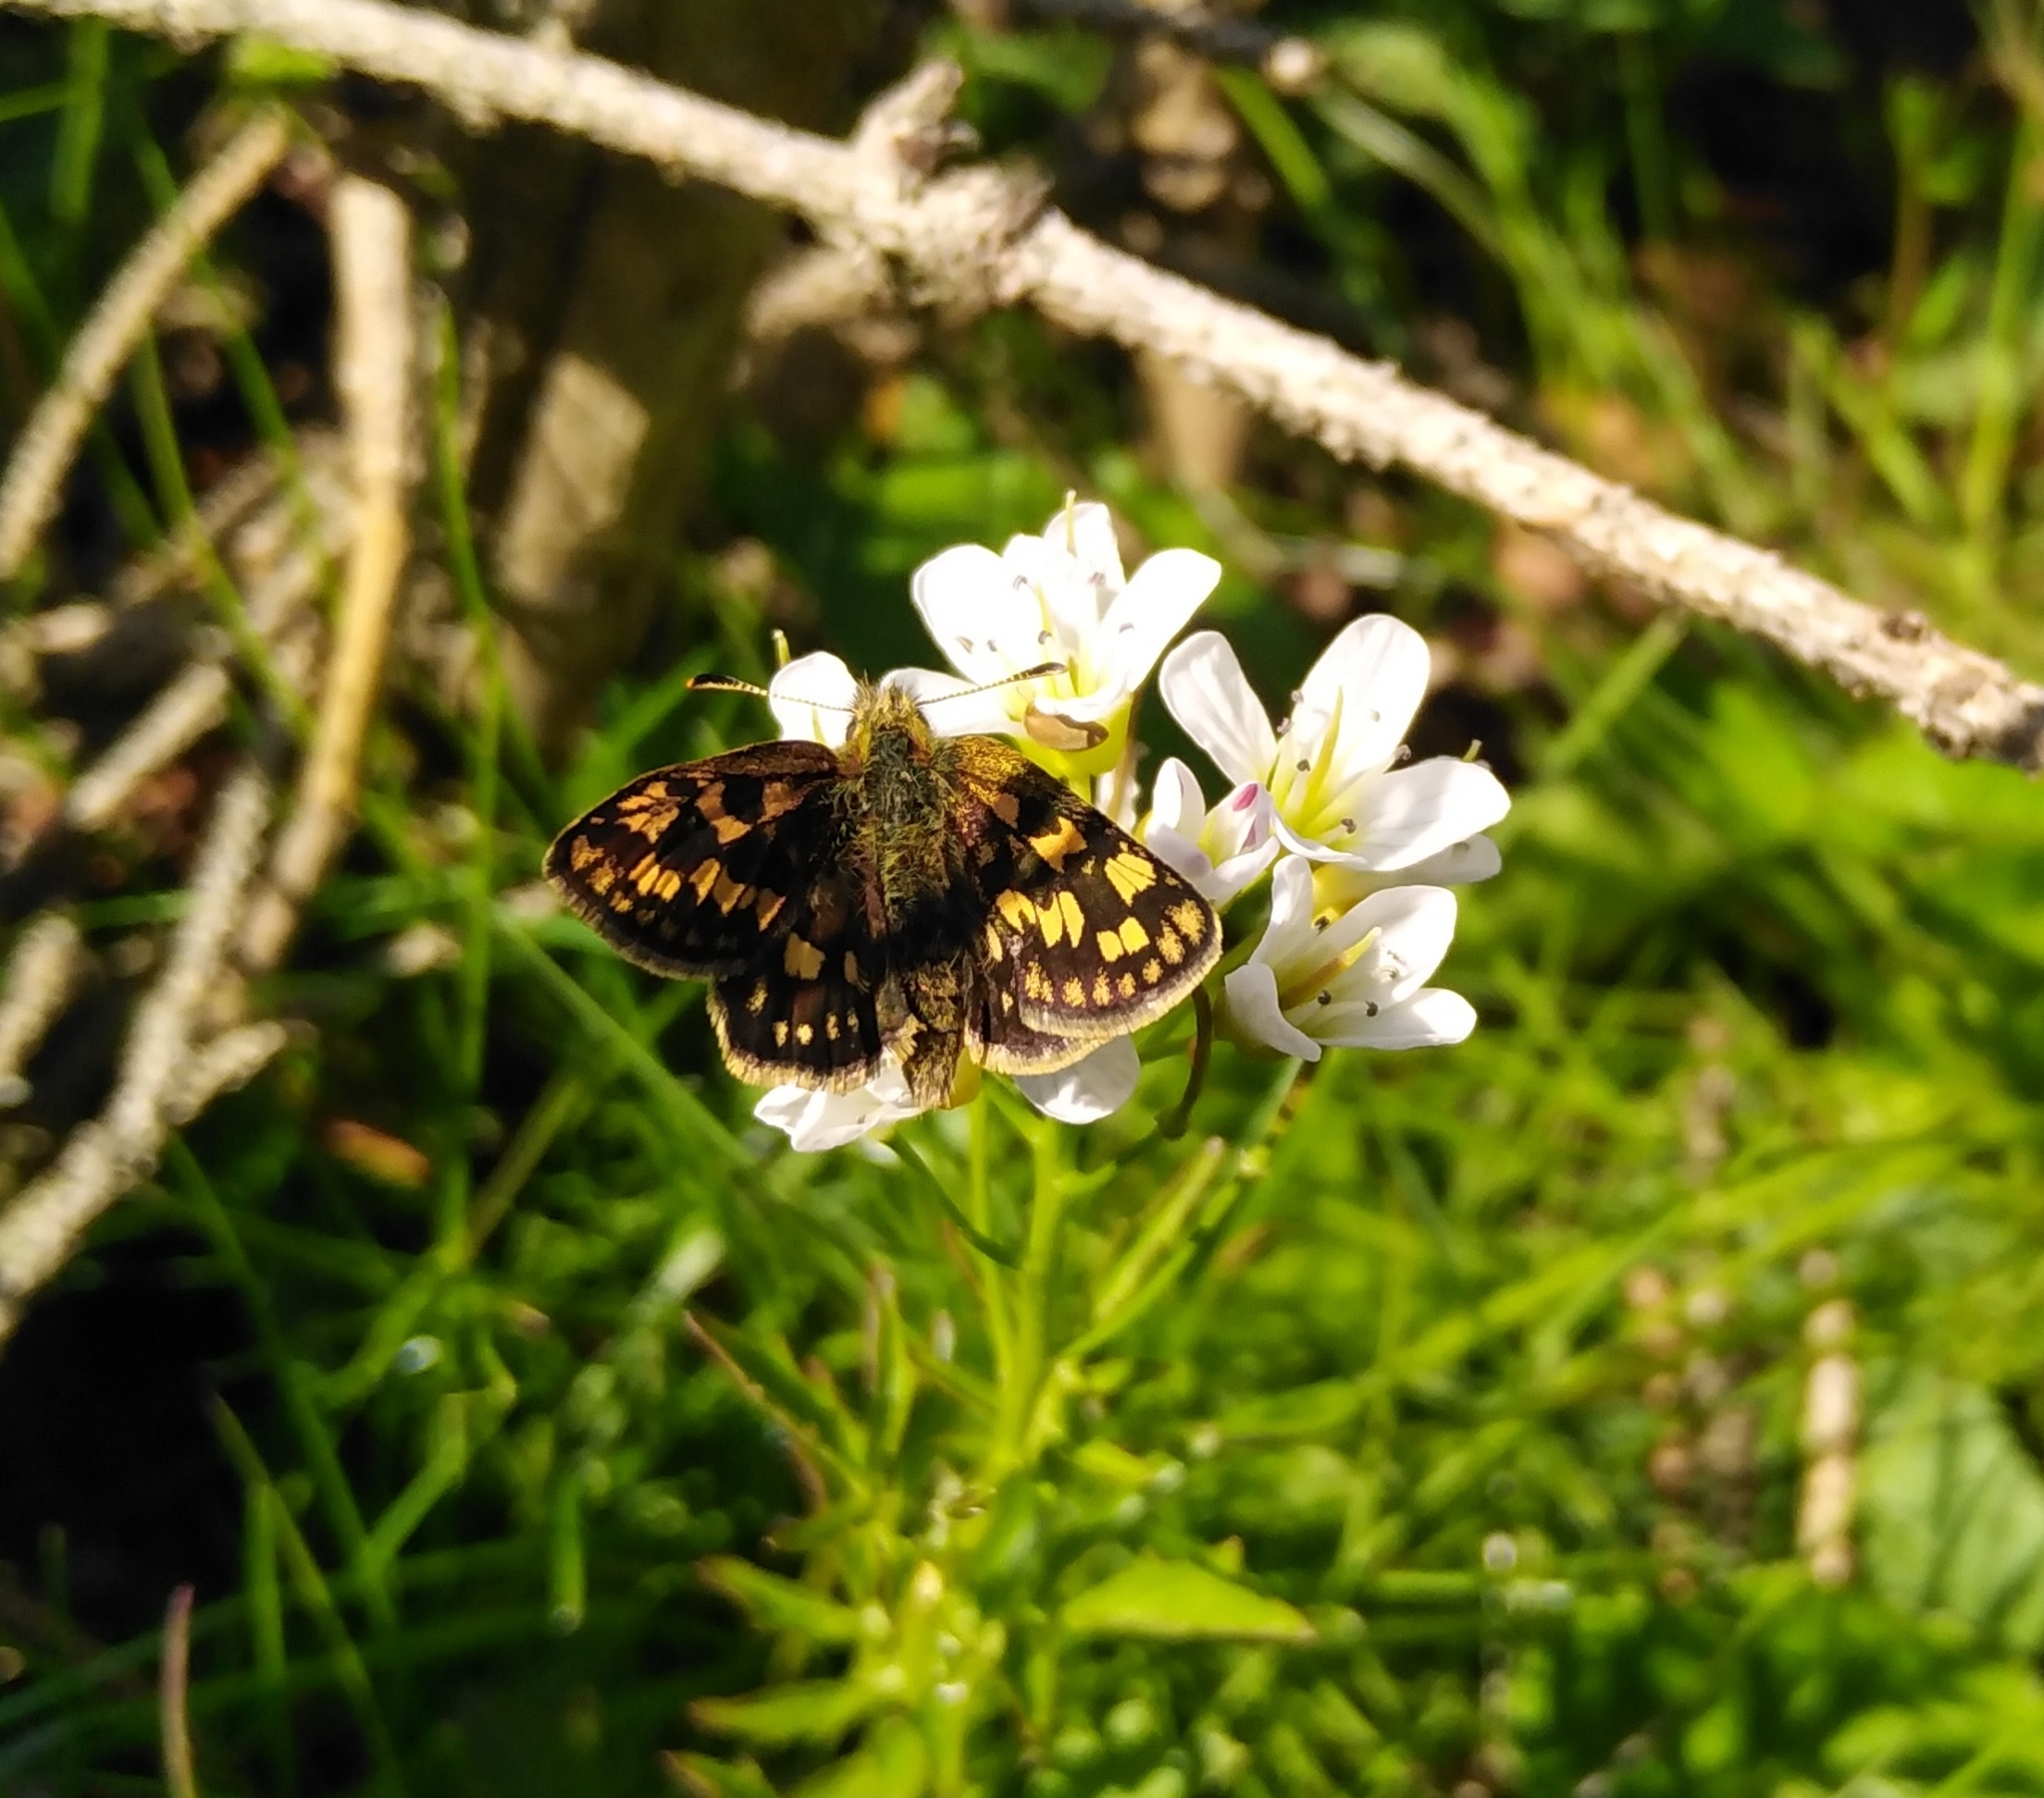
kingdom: Animalia
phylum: Arthropoda
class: Insecta
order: Lepidoptera
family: Hesperiidae
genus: Carterocephalus
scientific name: Carterocephalus palaemon
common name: Chequered skipper
